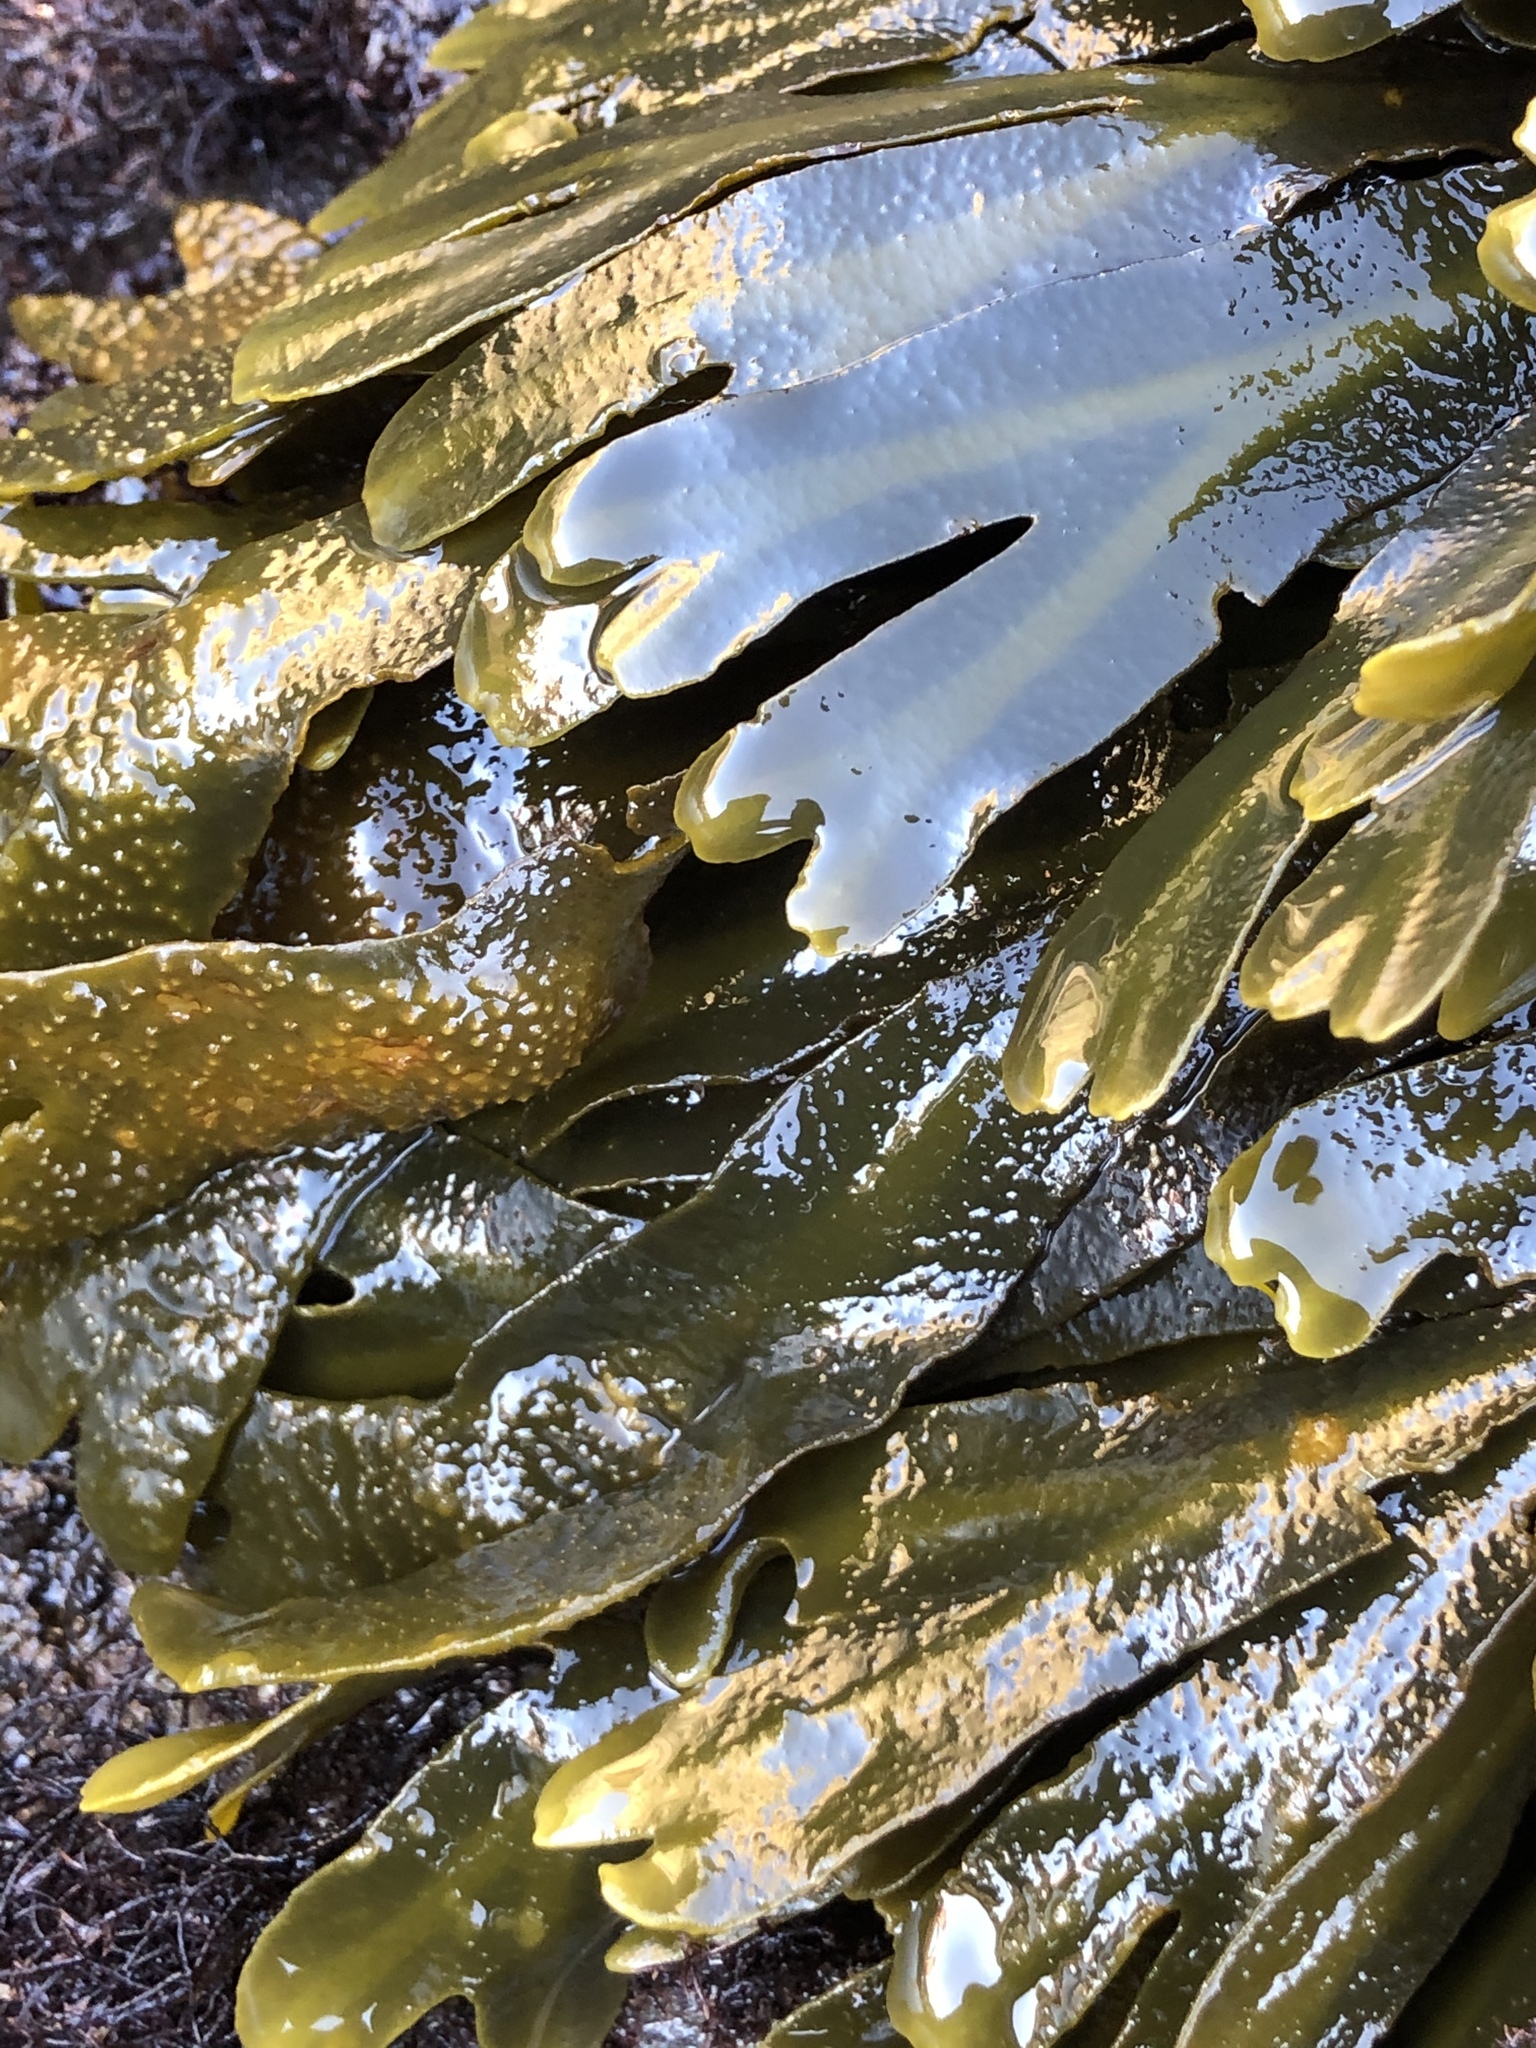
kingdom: Chromista
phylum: Ochrophyta
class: Phaeophyceae
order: Fucales
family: Fucaceae
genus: Fucus
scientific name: Fucus distichus
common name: Rockweed
